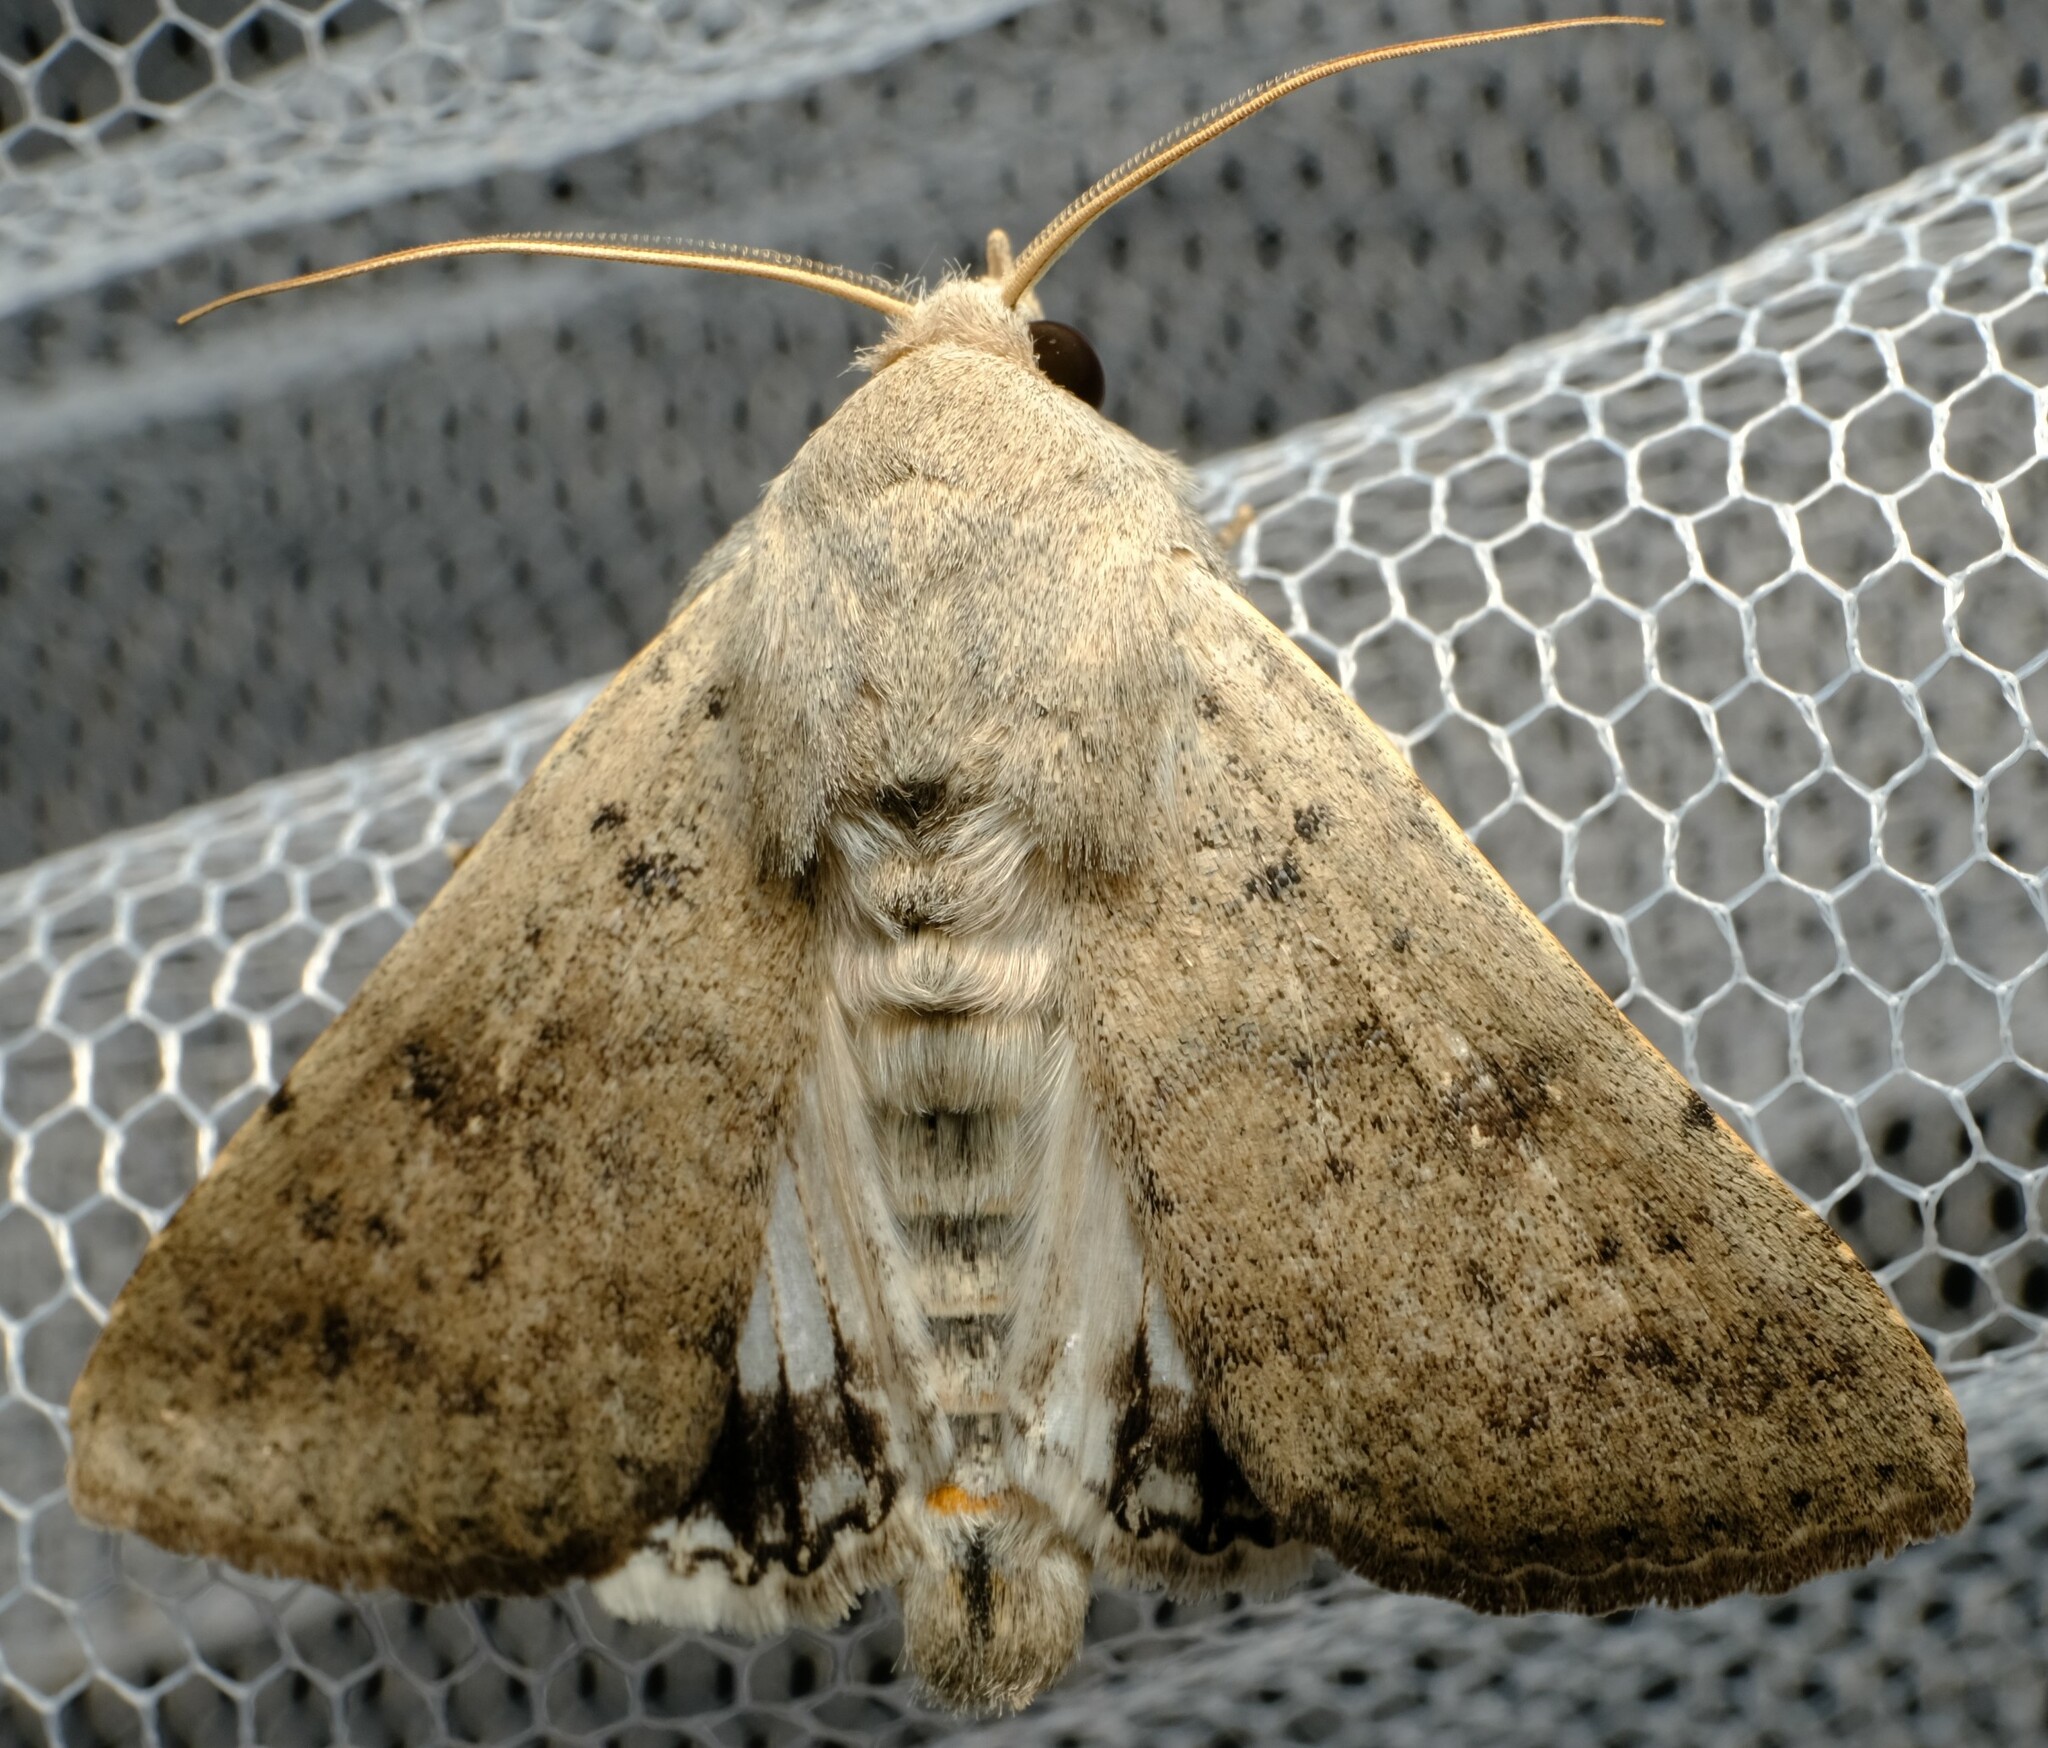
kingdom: Animalia
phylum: Arthropoda
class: Insecta
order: Lepidoptera
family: Erebidae
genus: Pandesma
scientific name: Pandesma submurina
